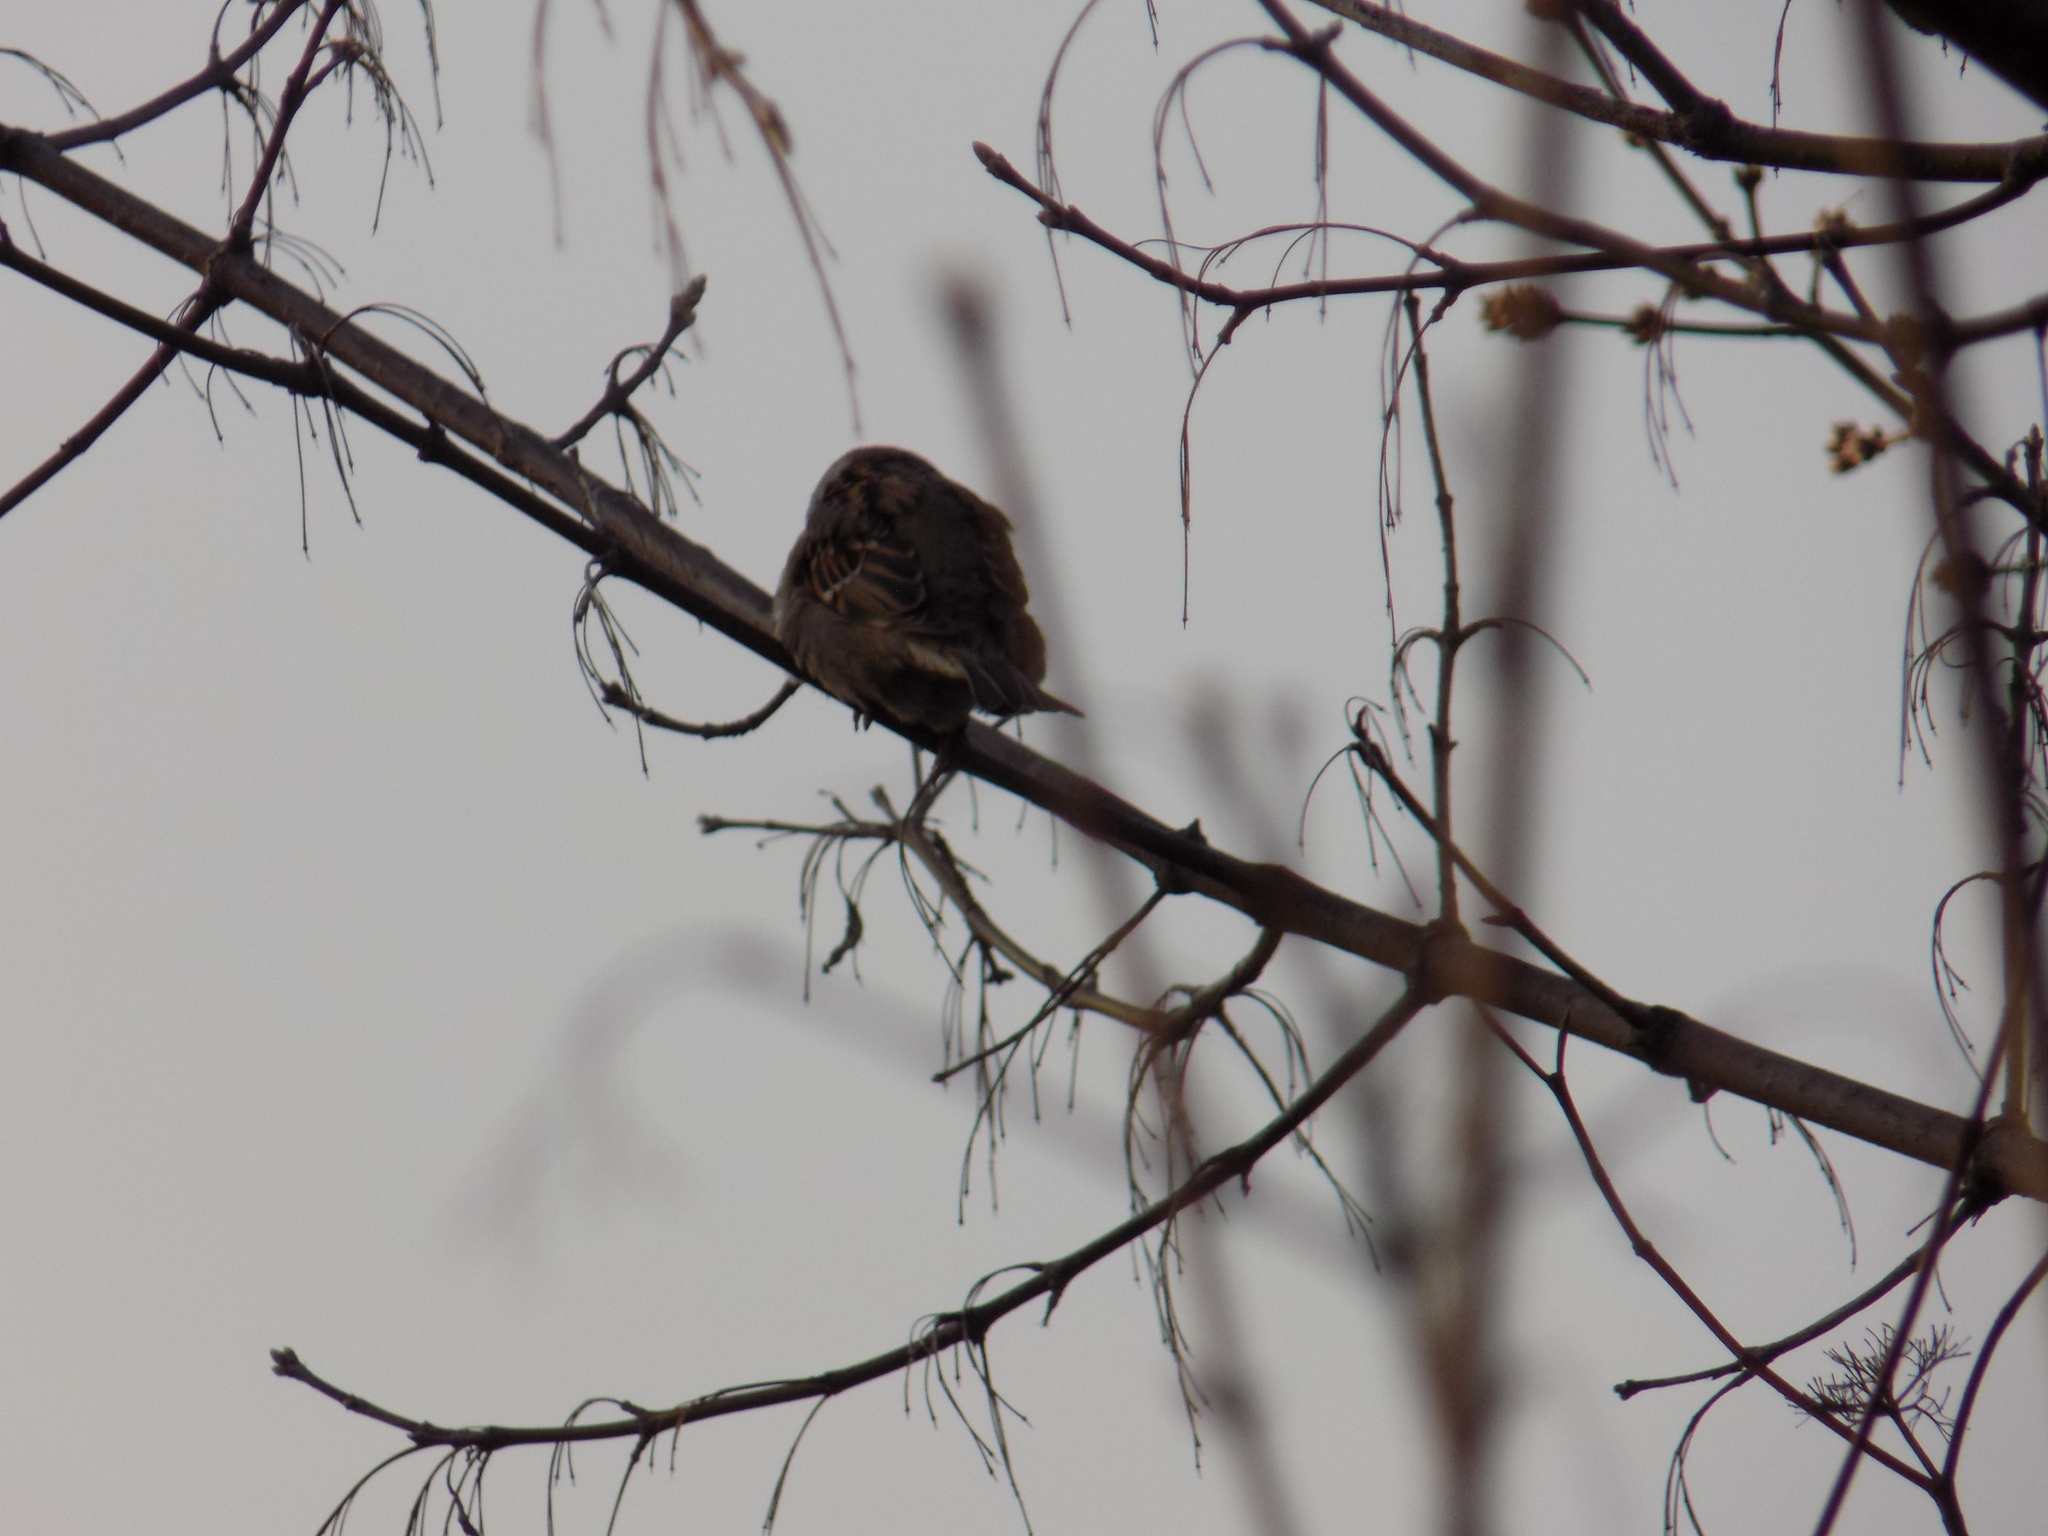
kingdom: Animalia
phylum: Chordata
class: Aves
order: Passeriformes
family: Passeridae
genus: Passer
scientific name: Passer montanus
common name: Eurasian tree sparrow
